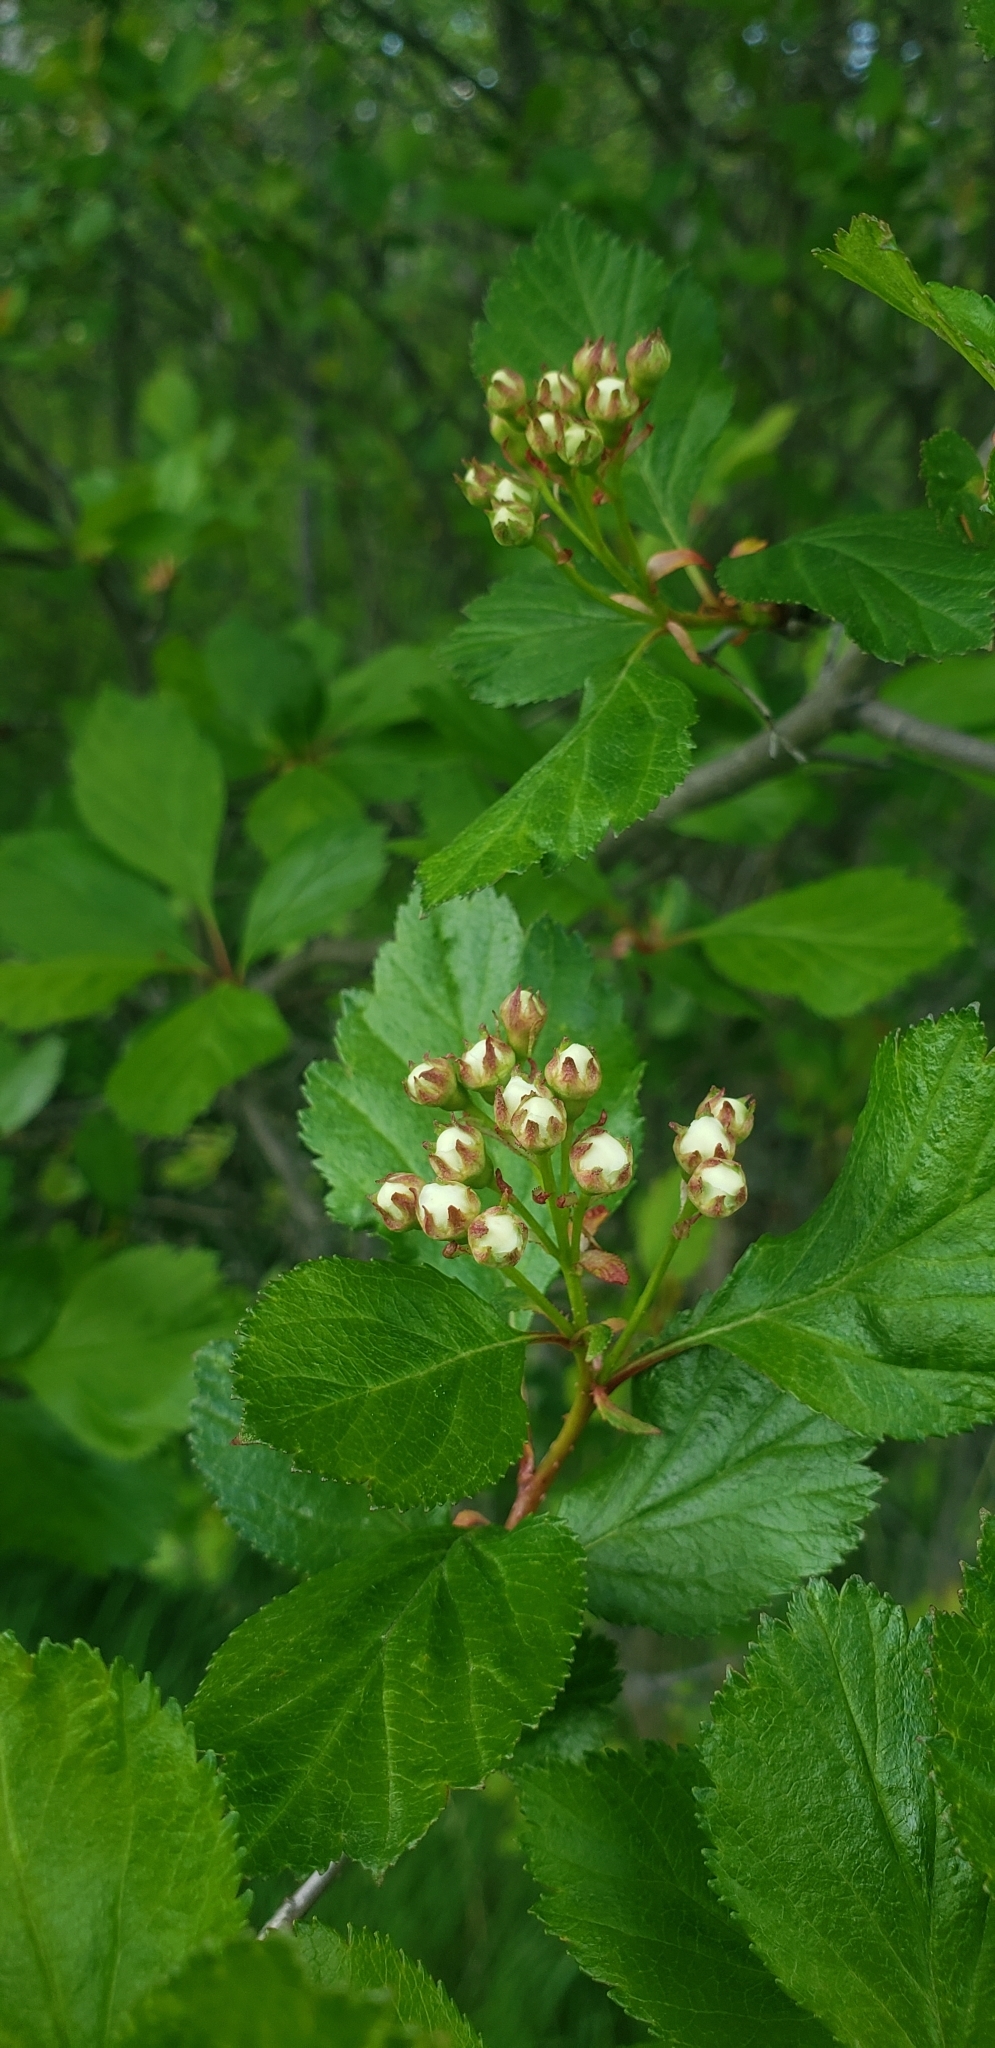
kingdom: Plantae
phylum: Tracheophyta
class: Magnoliopsida
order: Rosales
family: Rosaceae
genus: Crataegus
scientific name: Crataegus douglasii
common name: Black hawthorn
